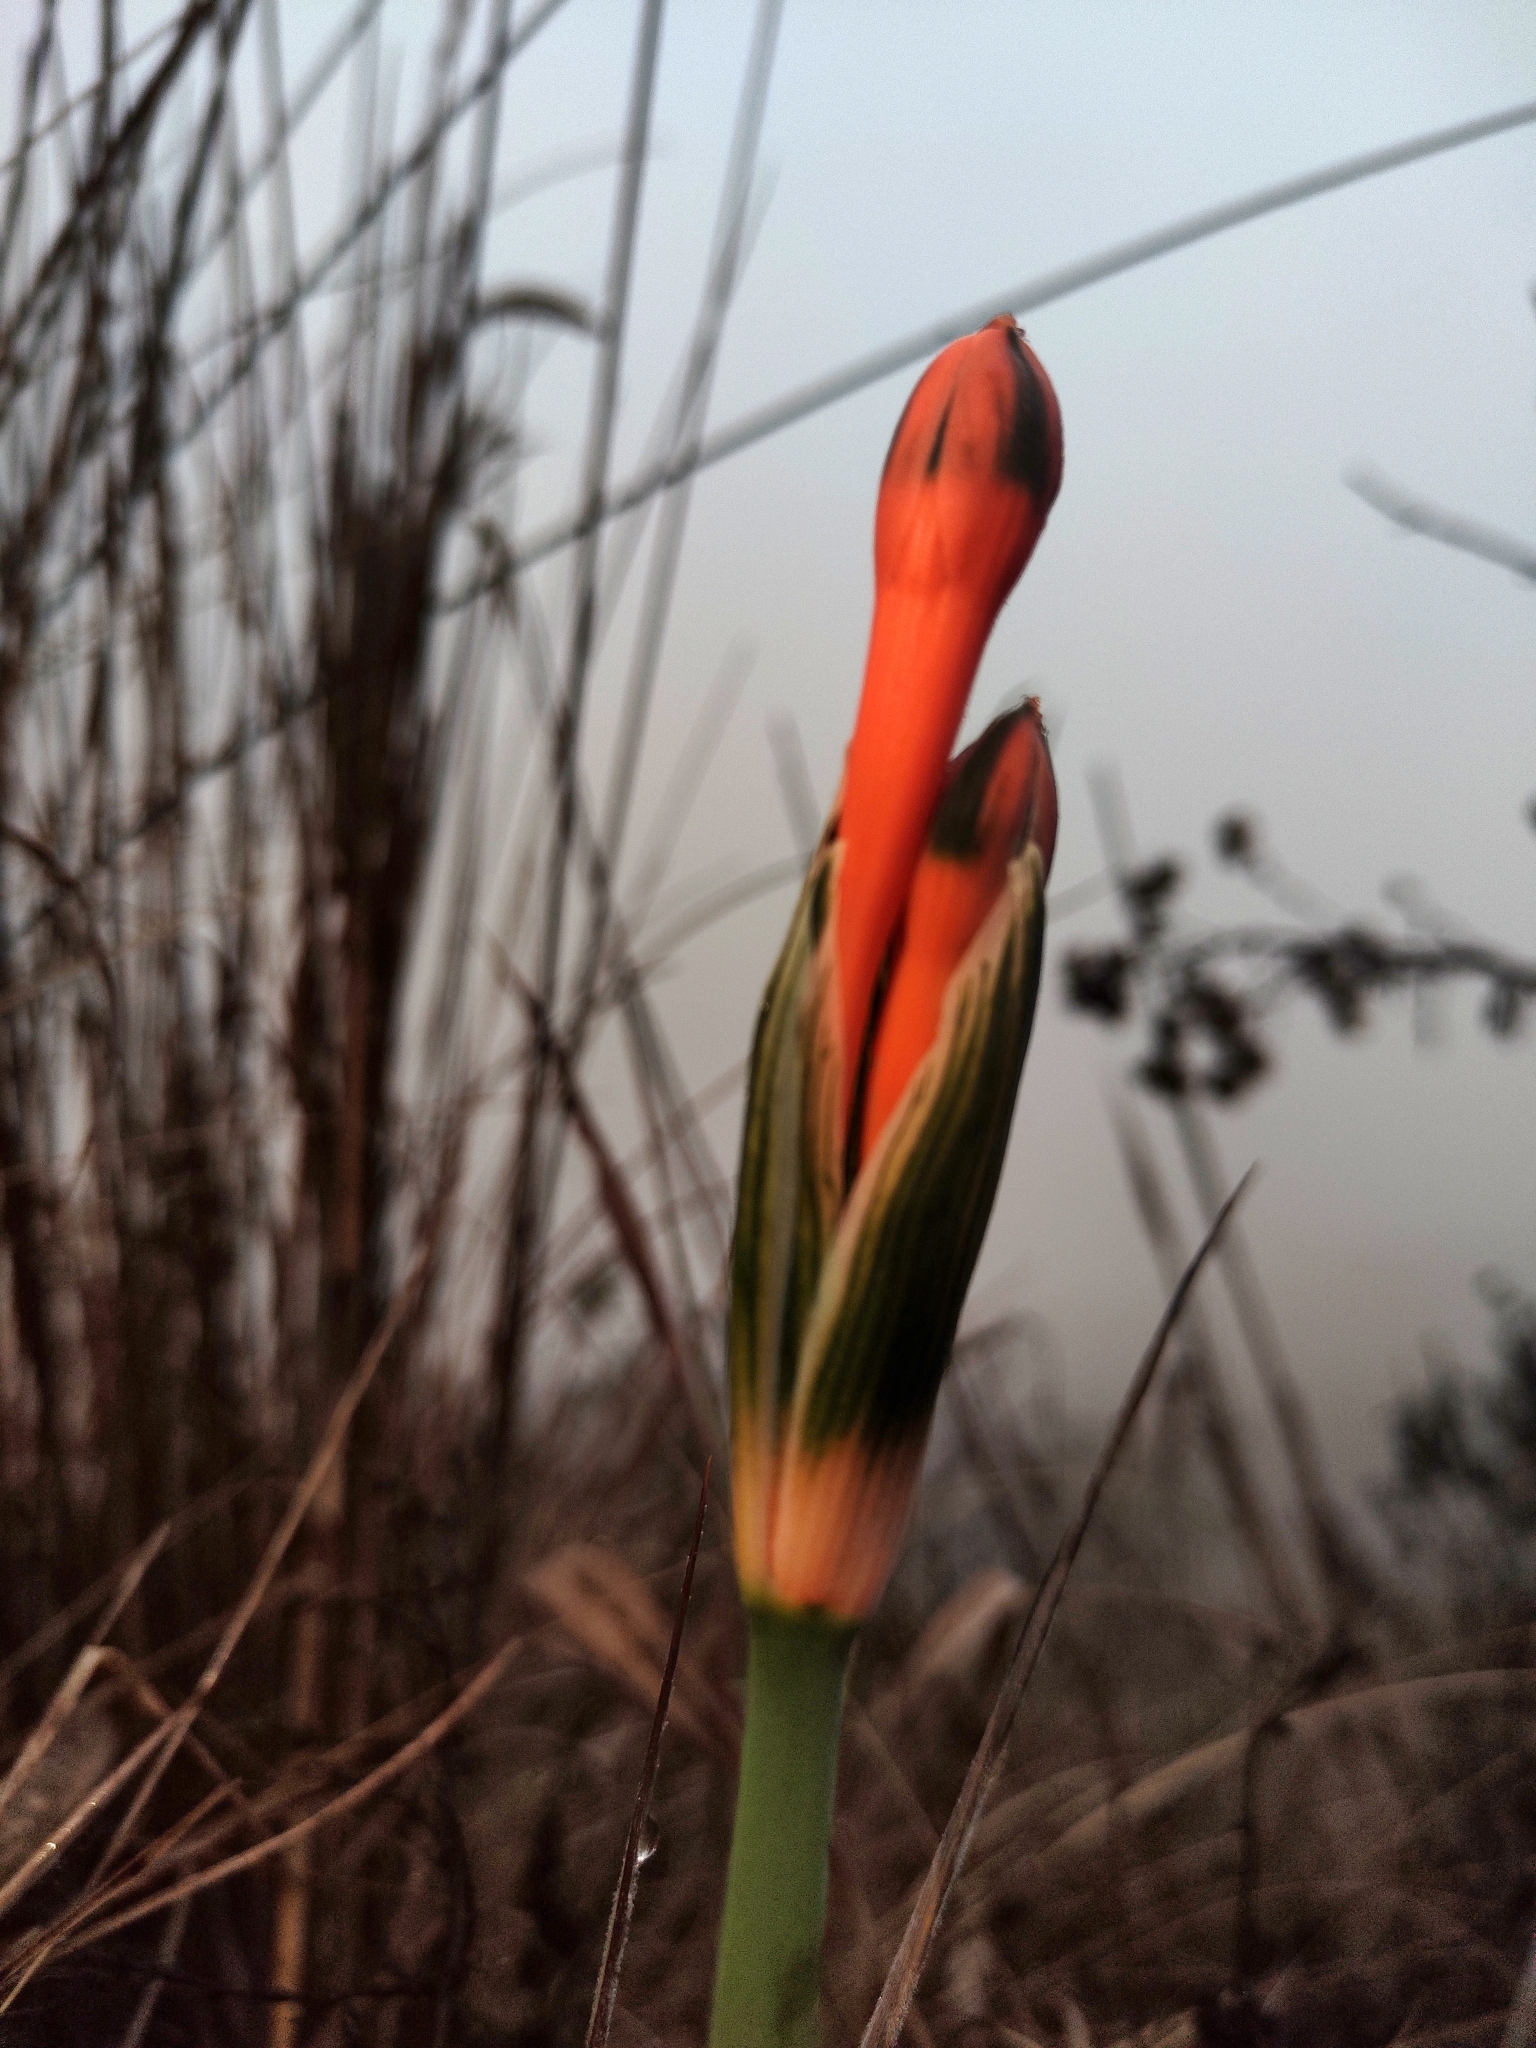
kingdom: Plantae
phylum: Tracheophyta
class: Liliopsida
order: Asparagales
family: Amaryllidaceae
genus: Clinanthus
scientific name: Clinanthus incarnatus
